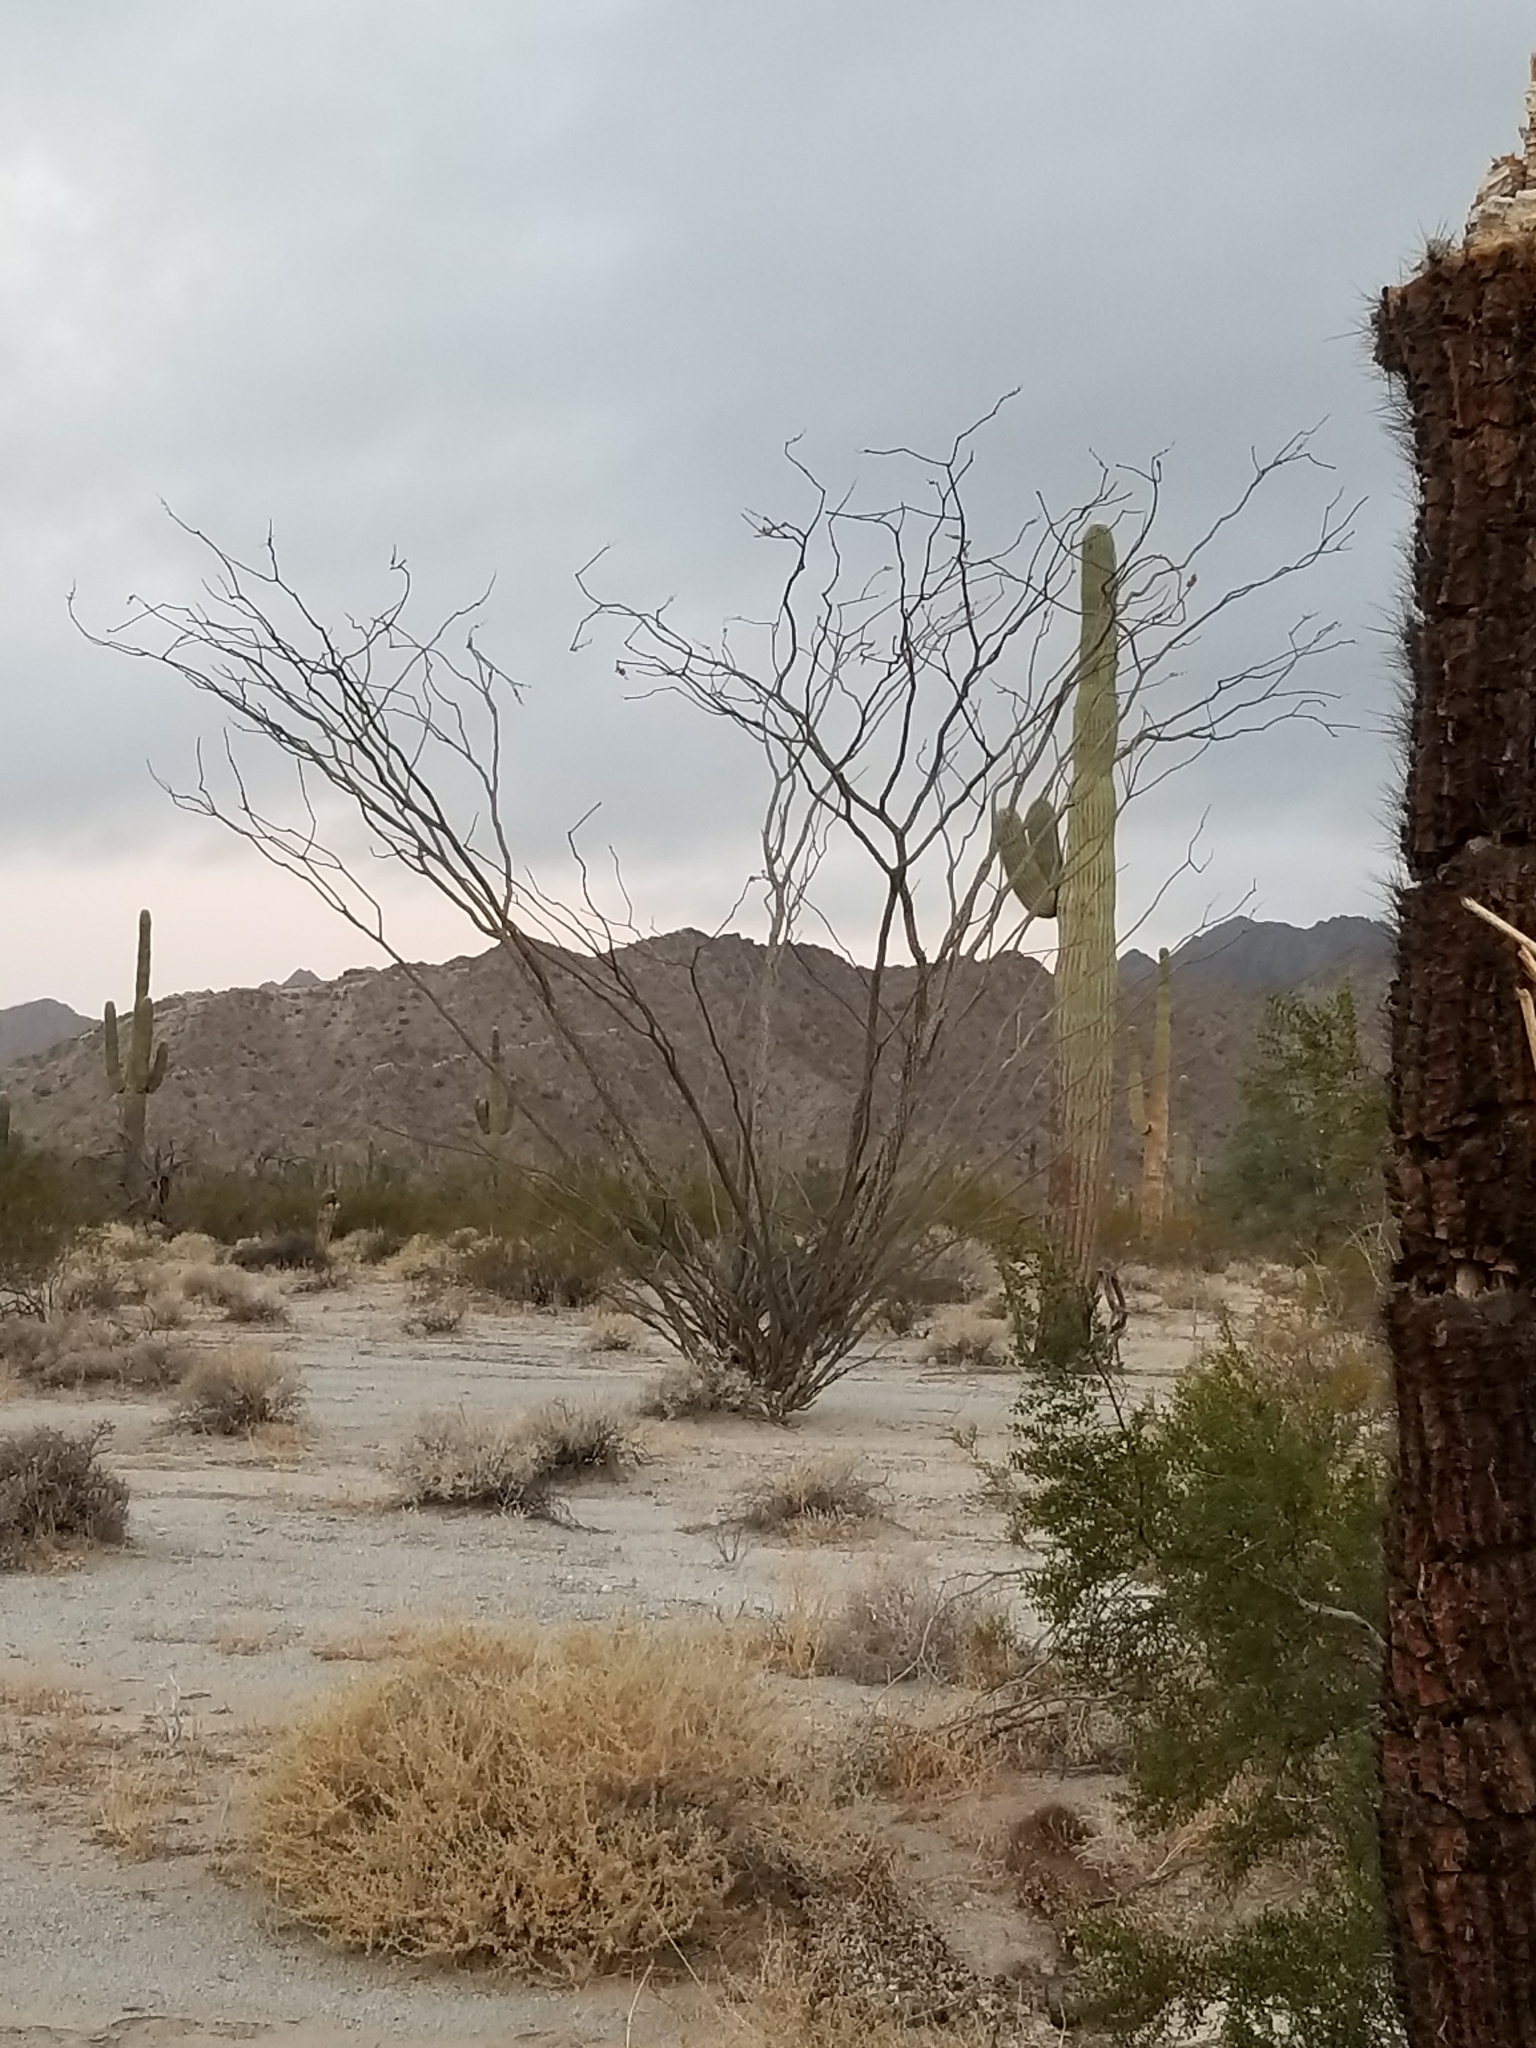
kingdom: Plantae
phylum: Tracheophyta
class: Magnoliopsida
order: Ericales
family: Fouquieriaceae
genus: Fouquieria
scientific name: Fouquieria splendens
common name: Vine-cactus
